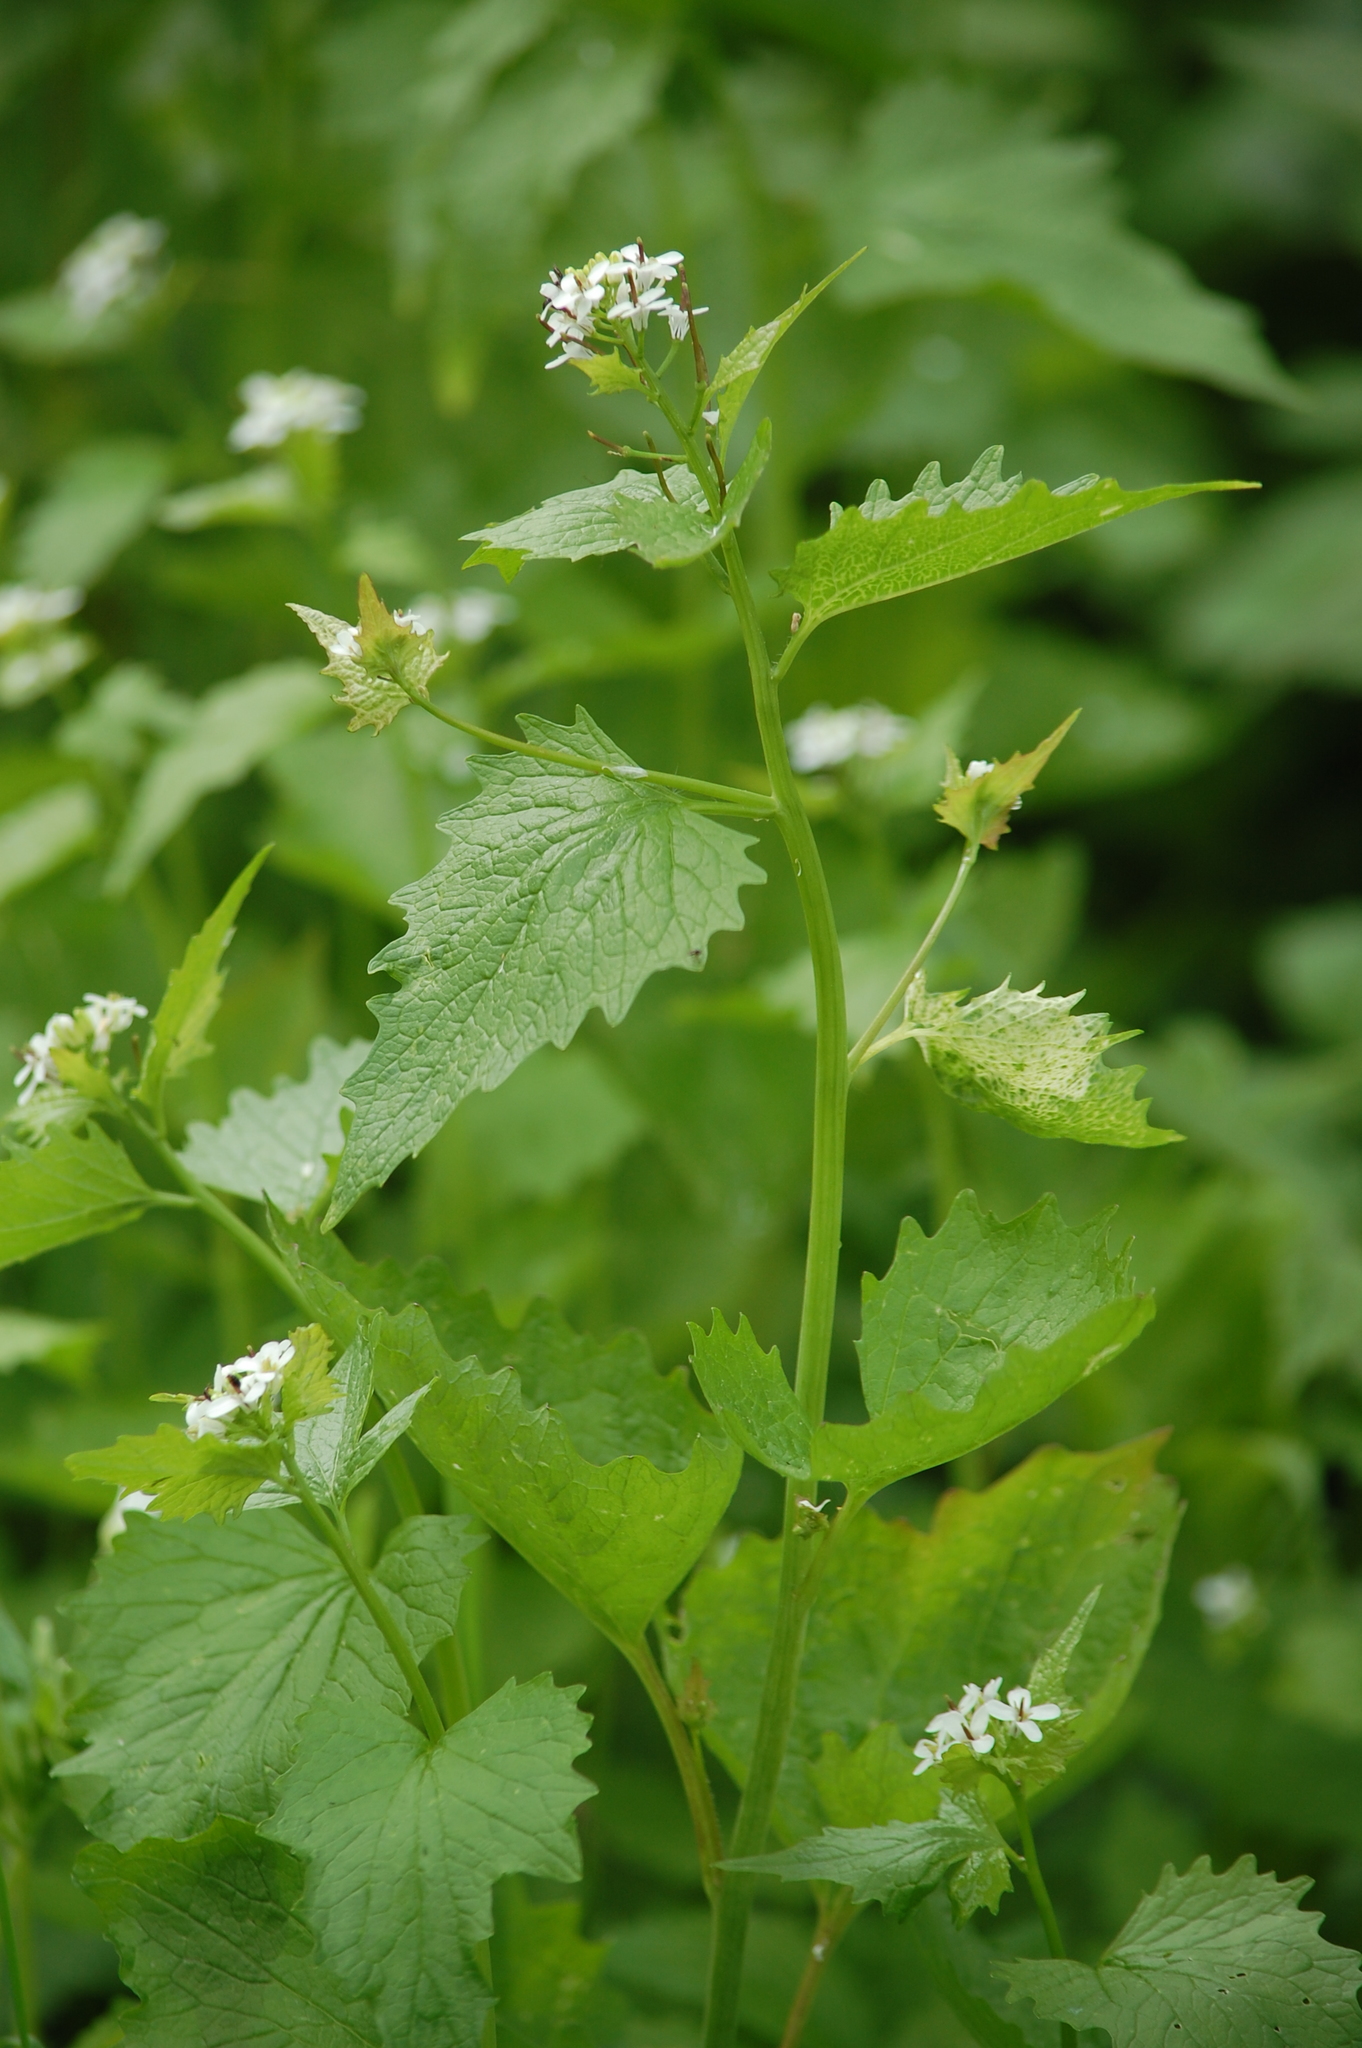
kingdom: Plantae
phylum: Tracheophyta
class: Magnoliopsida
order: Brassicales
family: Brassicaceae
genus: Alliaria
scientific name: Alliaria petiolata
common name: Garlic mustard
